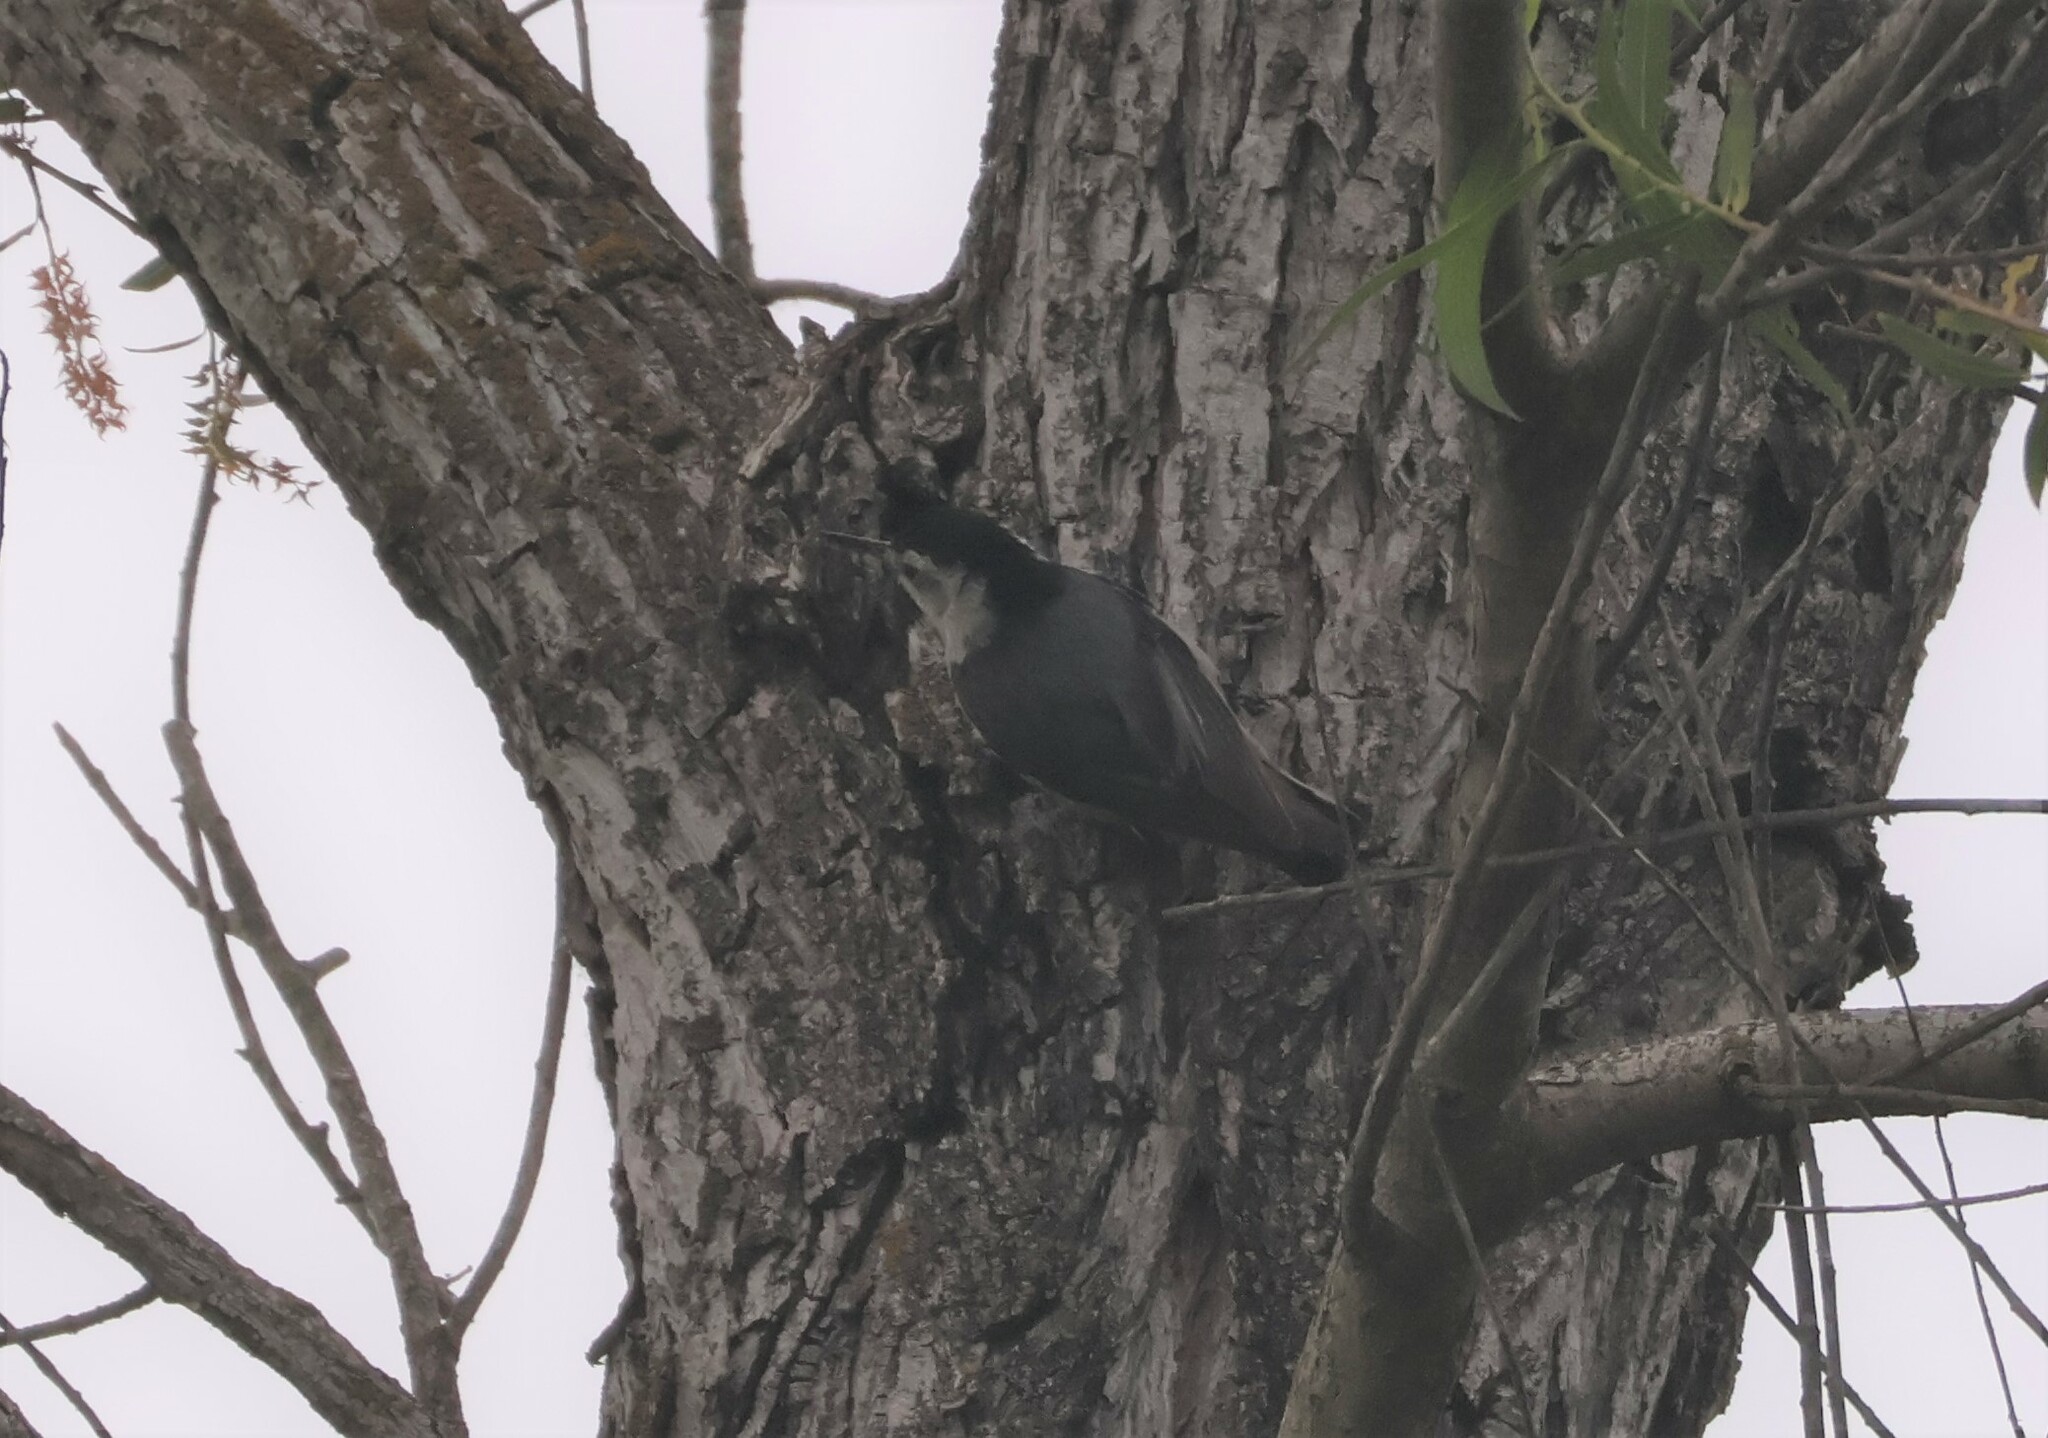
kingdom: Animalia
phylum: Chordata
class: Aves
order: Passeriformes
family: Sittidae
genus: Sitta
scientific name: Sitta carolinensis
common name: White-breasted nuthatch
